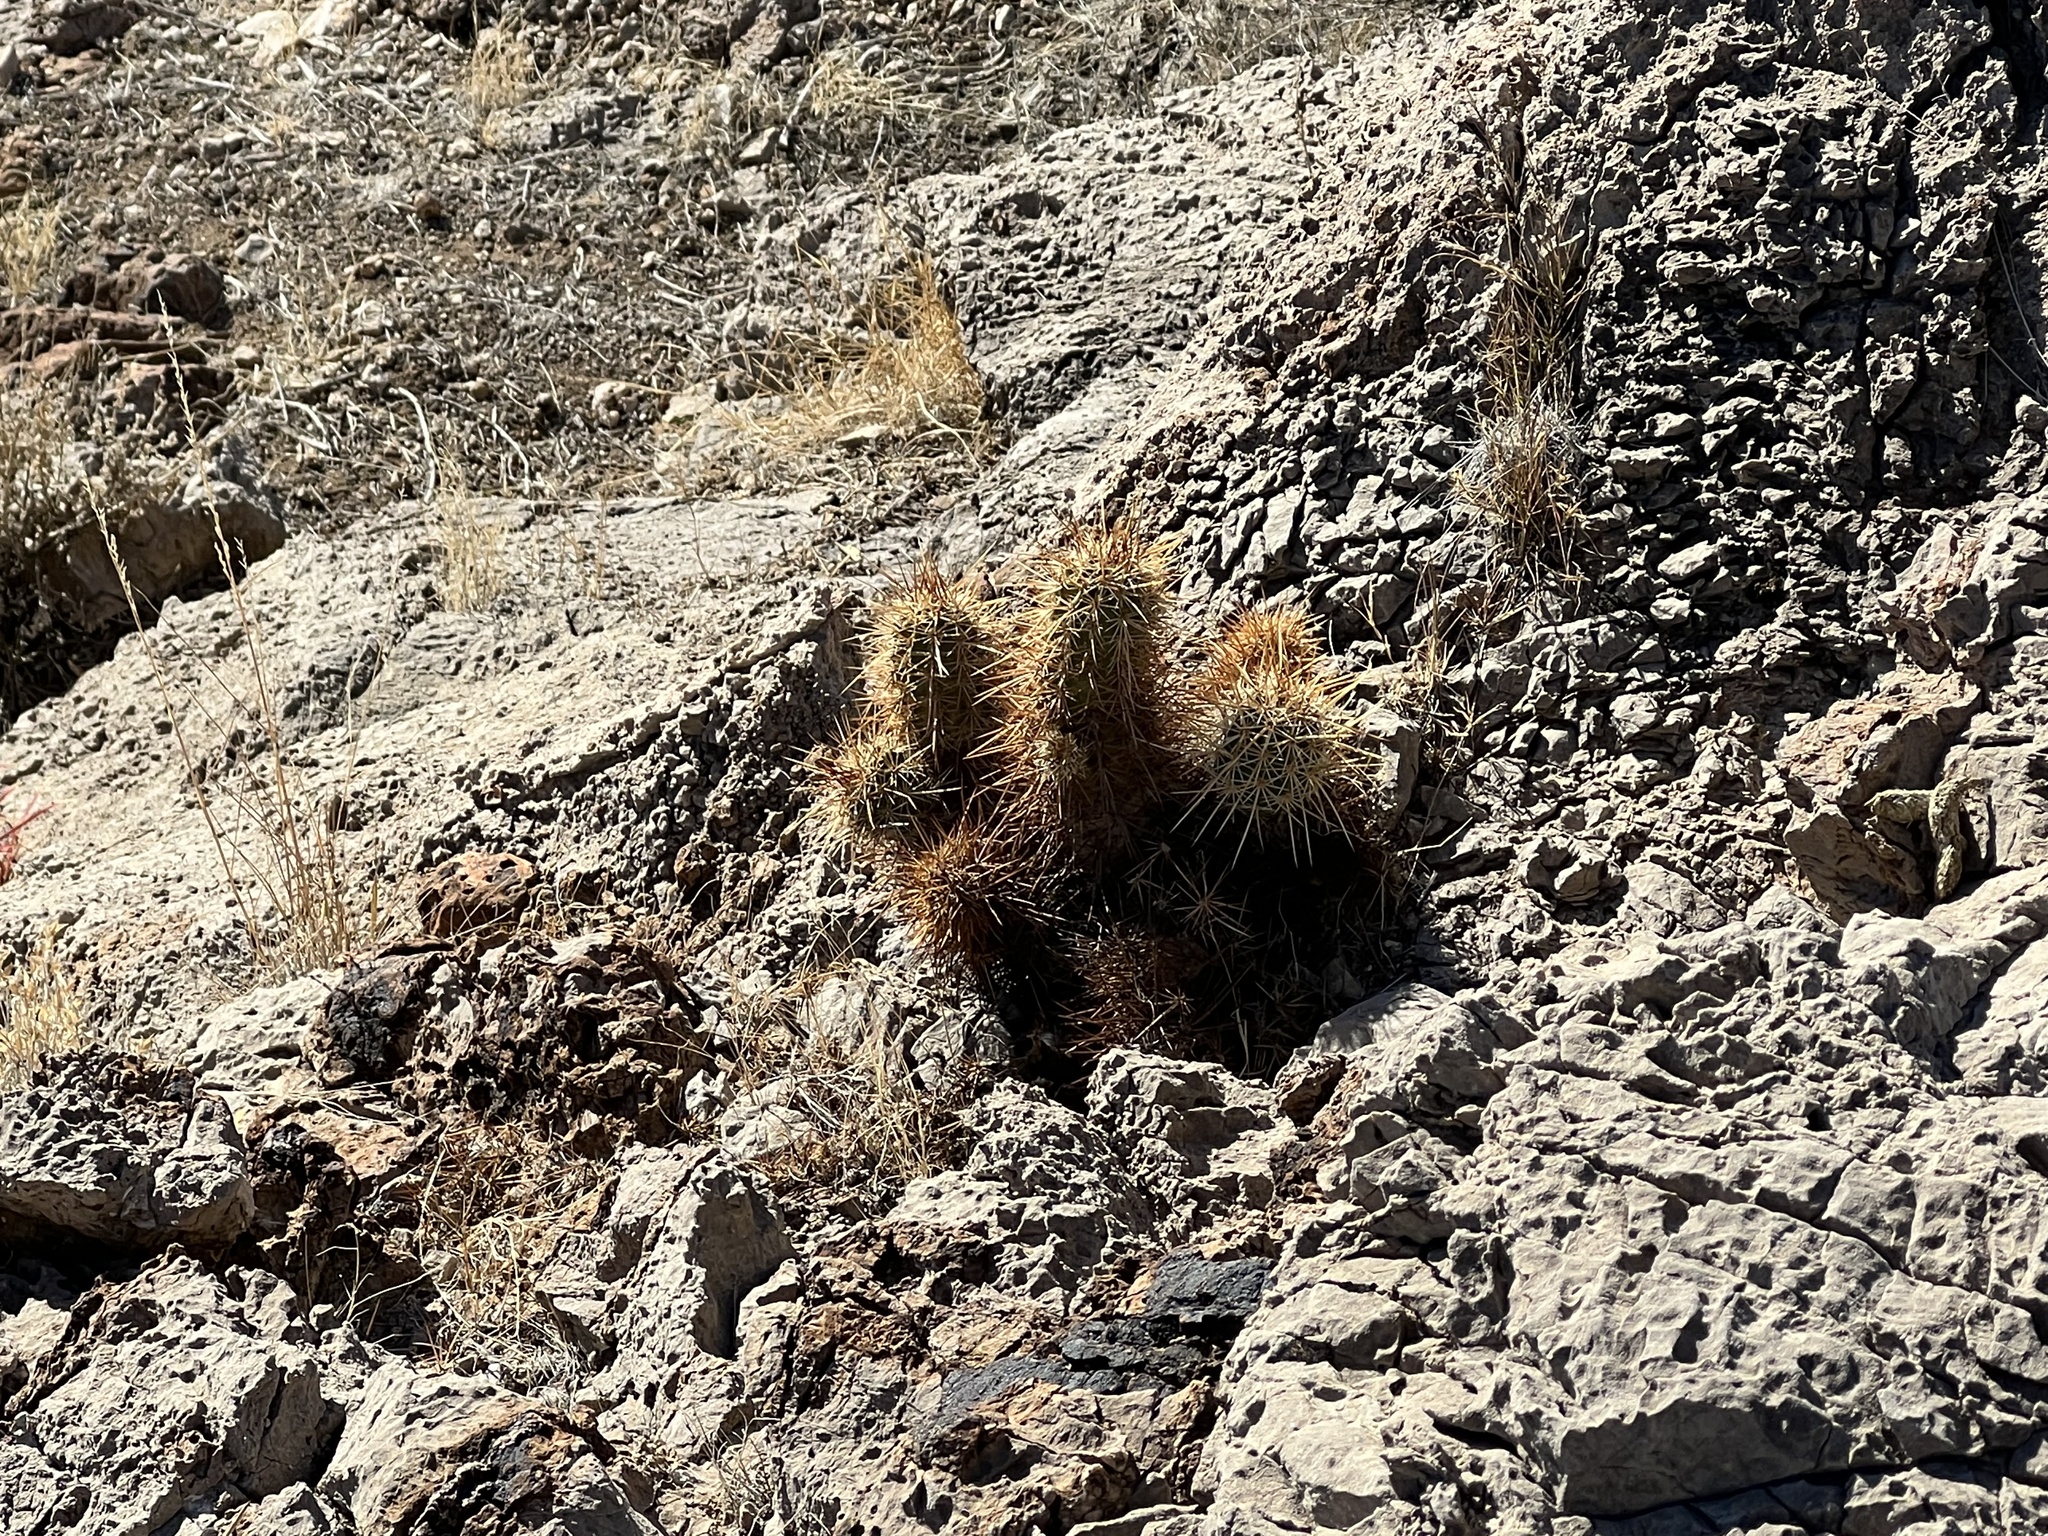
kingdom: Plantae
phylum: Tracheophyta
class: Magnoliopsida
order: Caryophyllales
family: Cactaceae
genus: Echinocereus
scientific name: Echinocereus engelmannii
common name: Engelmann's hedgehog cactus
